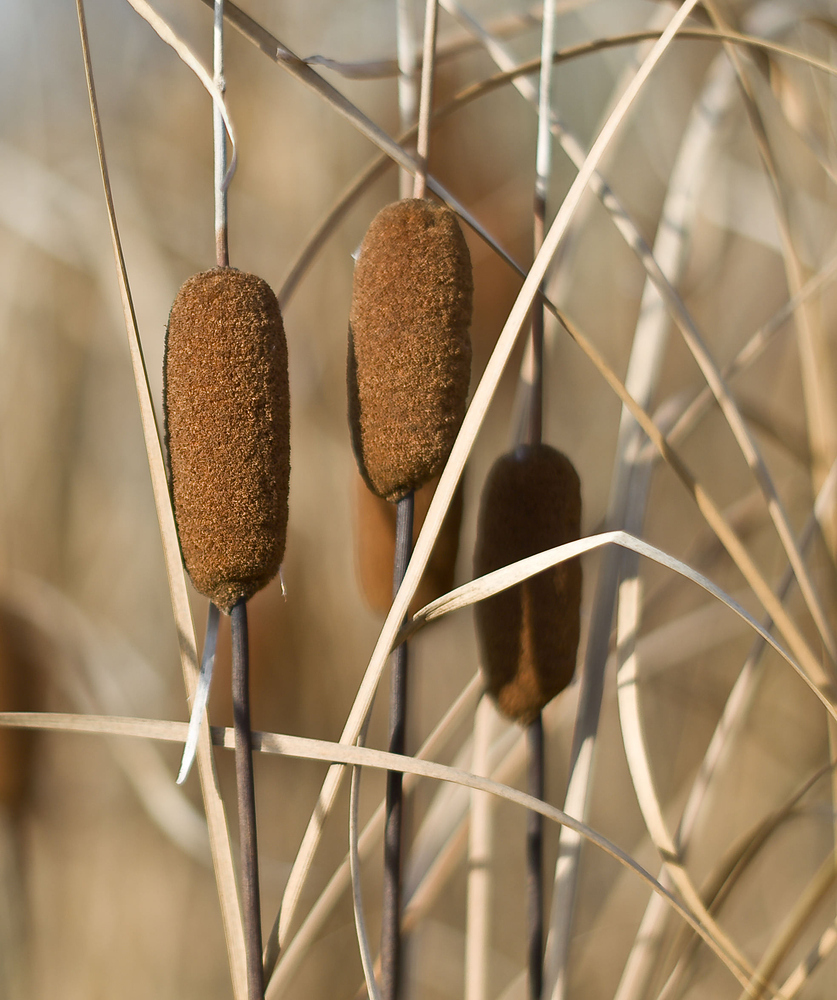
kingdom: Plantae
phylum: Tracheophyta
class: Liliopsida
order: Poales
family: Typhaceae
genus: Typha
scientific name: Typha laxmannii
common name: Laxman’s bulrush
